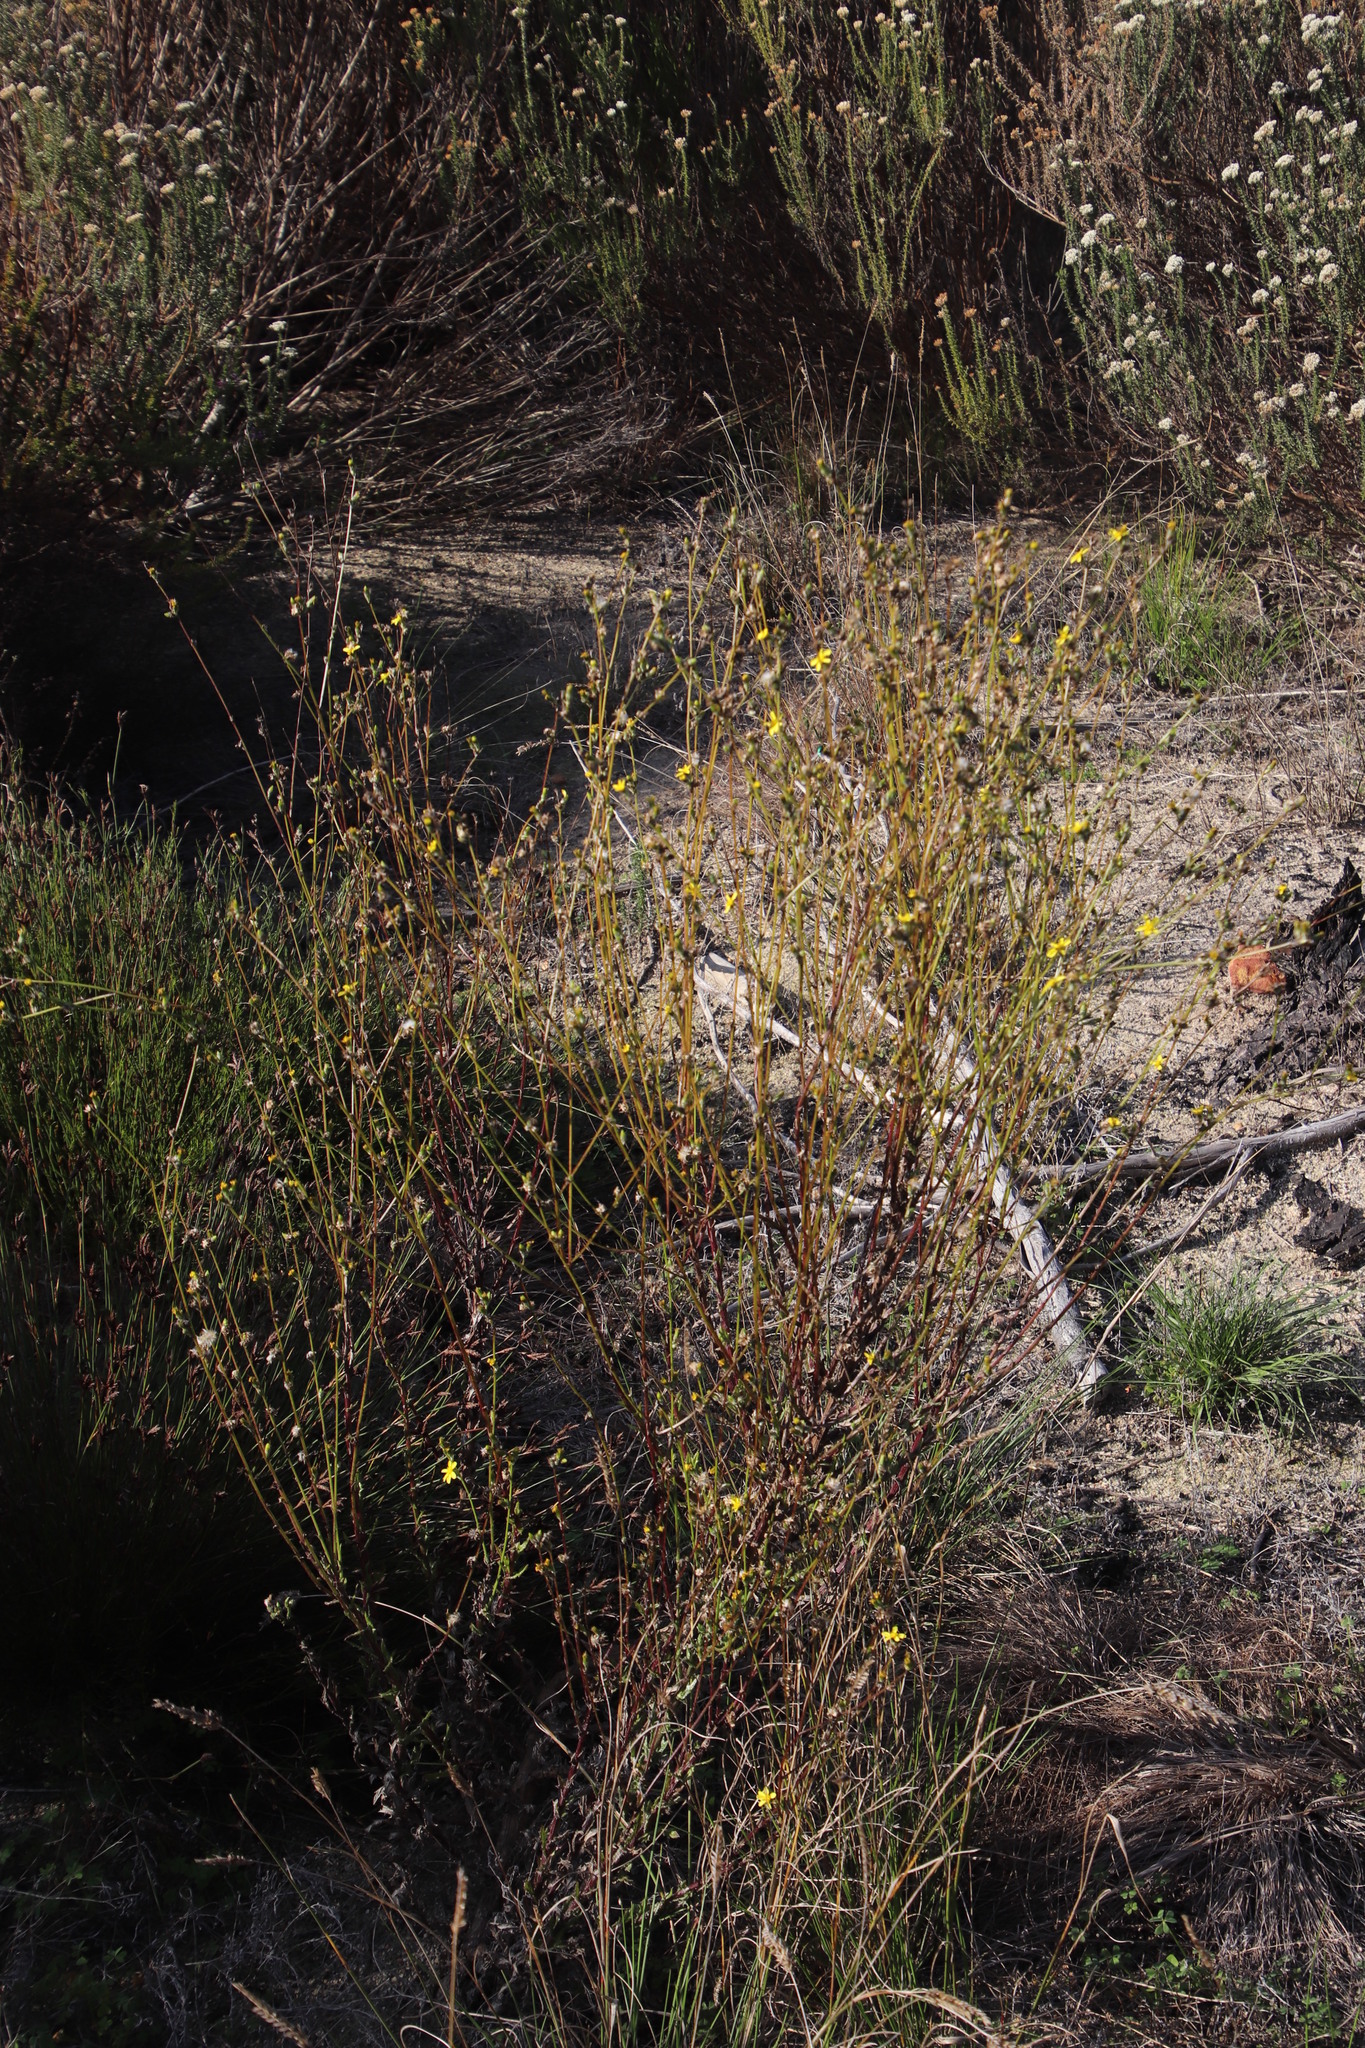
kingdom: Plantae
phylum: Tracheophyta
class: Magnoliopsida
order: Asterales
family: Asteraceae
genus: Senecio
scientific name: Senecio pubigerus
